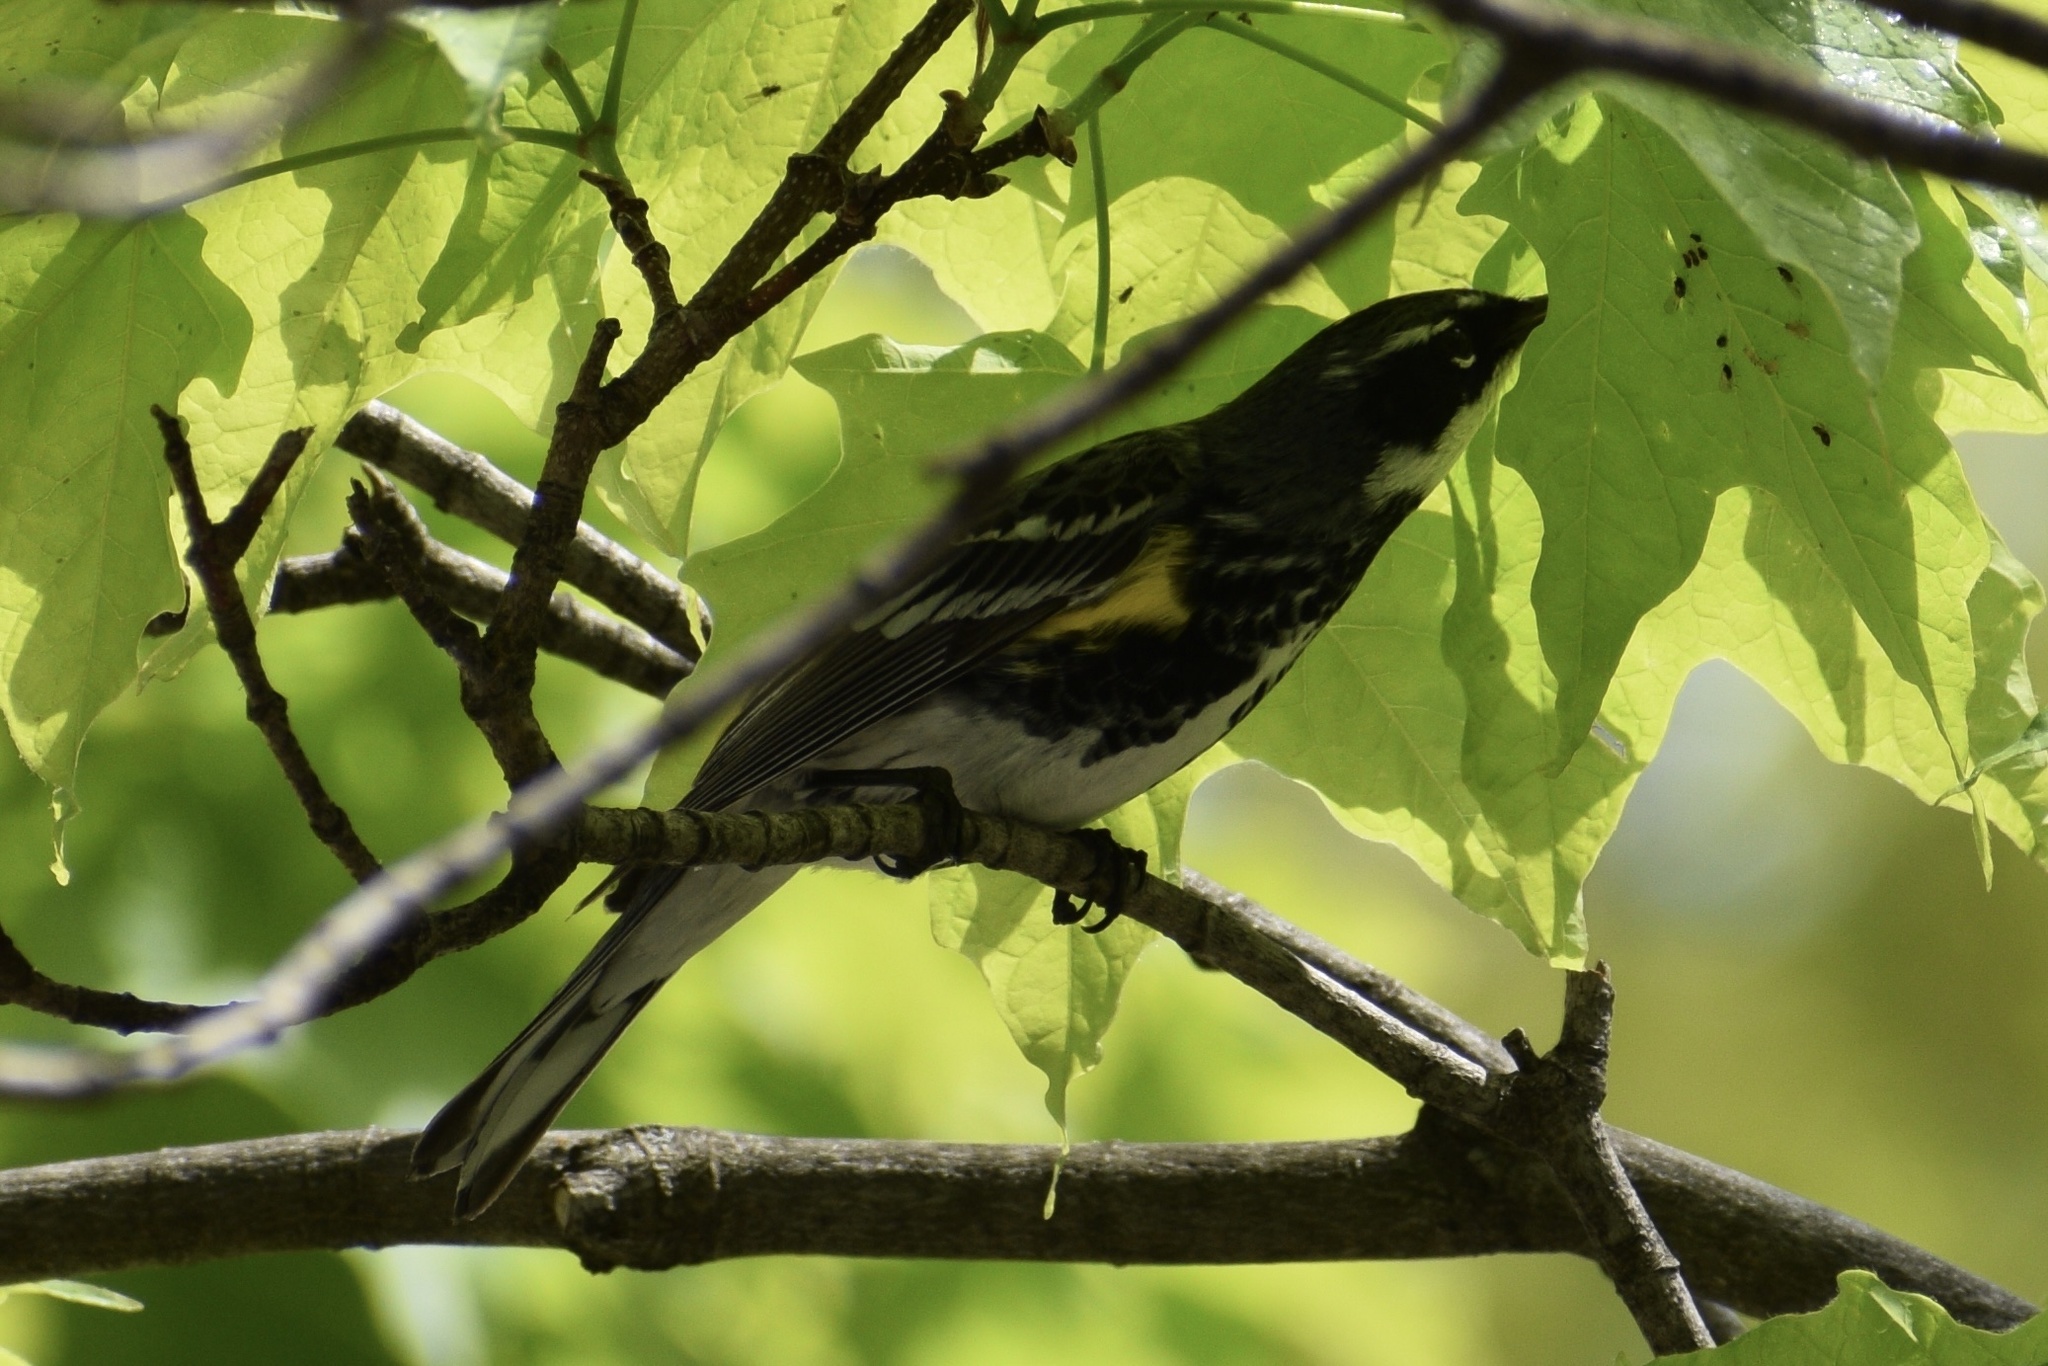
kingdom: Animalia
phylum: Chordata
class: Aves
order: Passeriformes
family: Parulidae
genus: Setophaga
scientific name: Setophaga coronata
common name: Myrtle warbler
